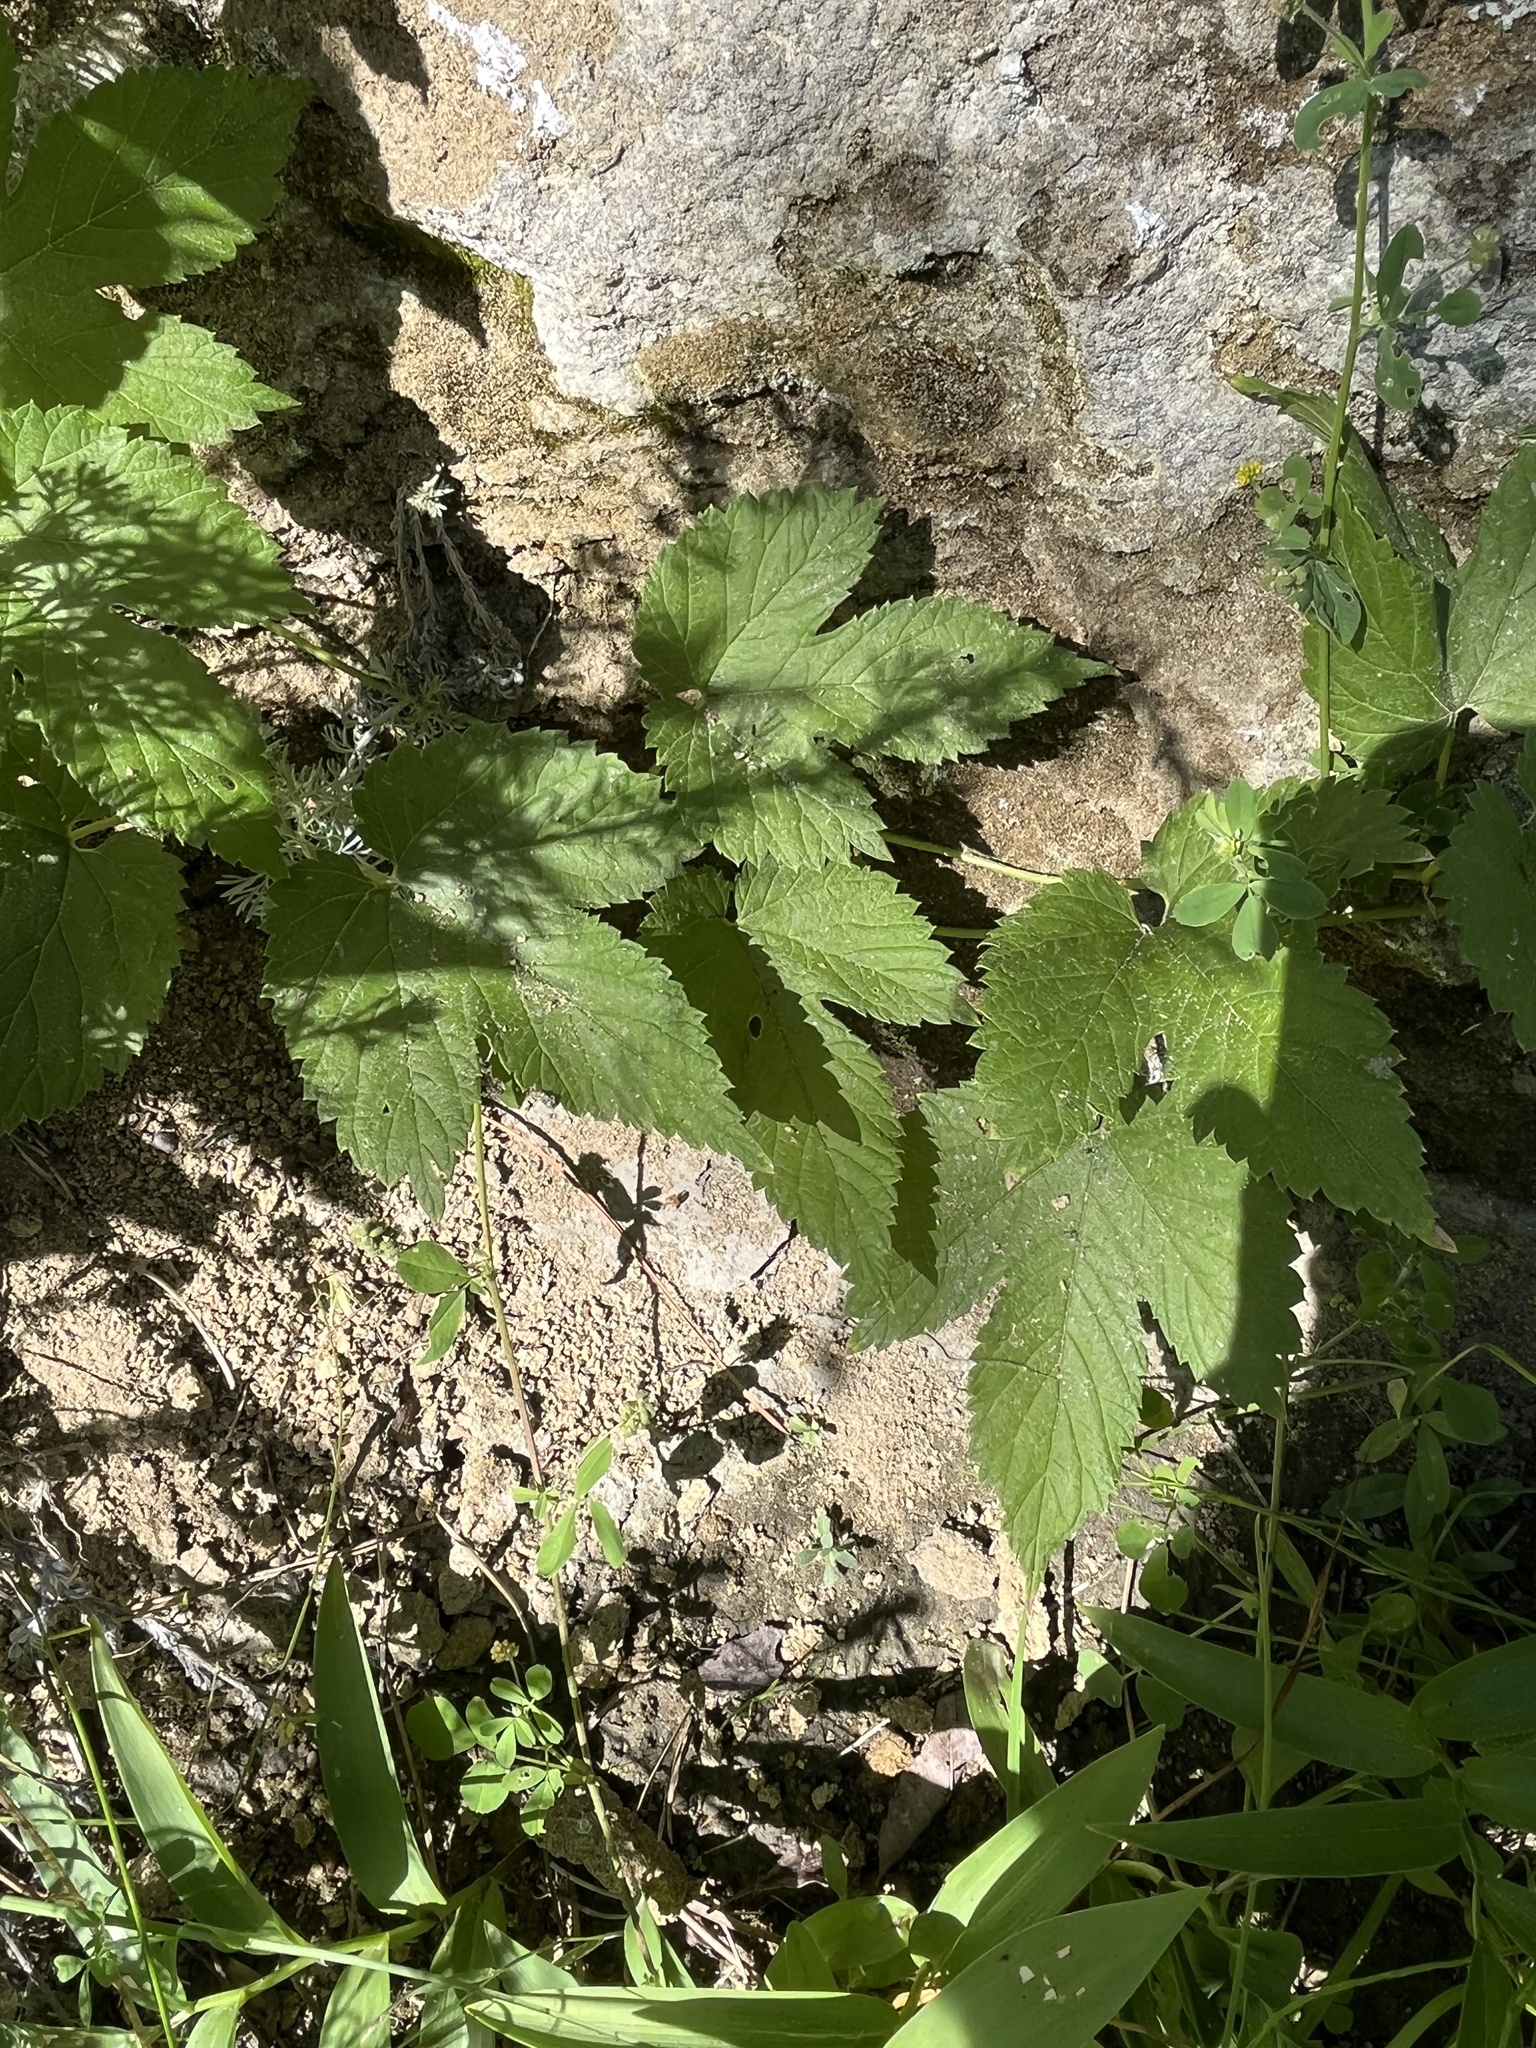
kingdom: Plantae
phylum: Tracheophyta
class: Magnoliopsida
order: Rosales
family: Cannabaceae
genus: Humulus
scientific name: Humulus lupulus
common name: Hop
